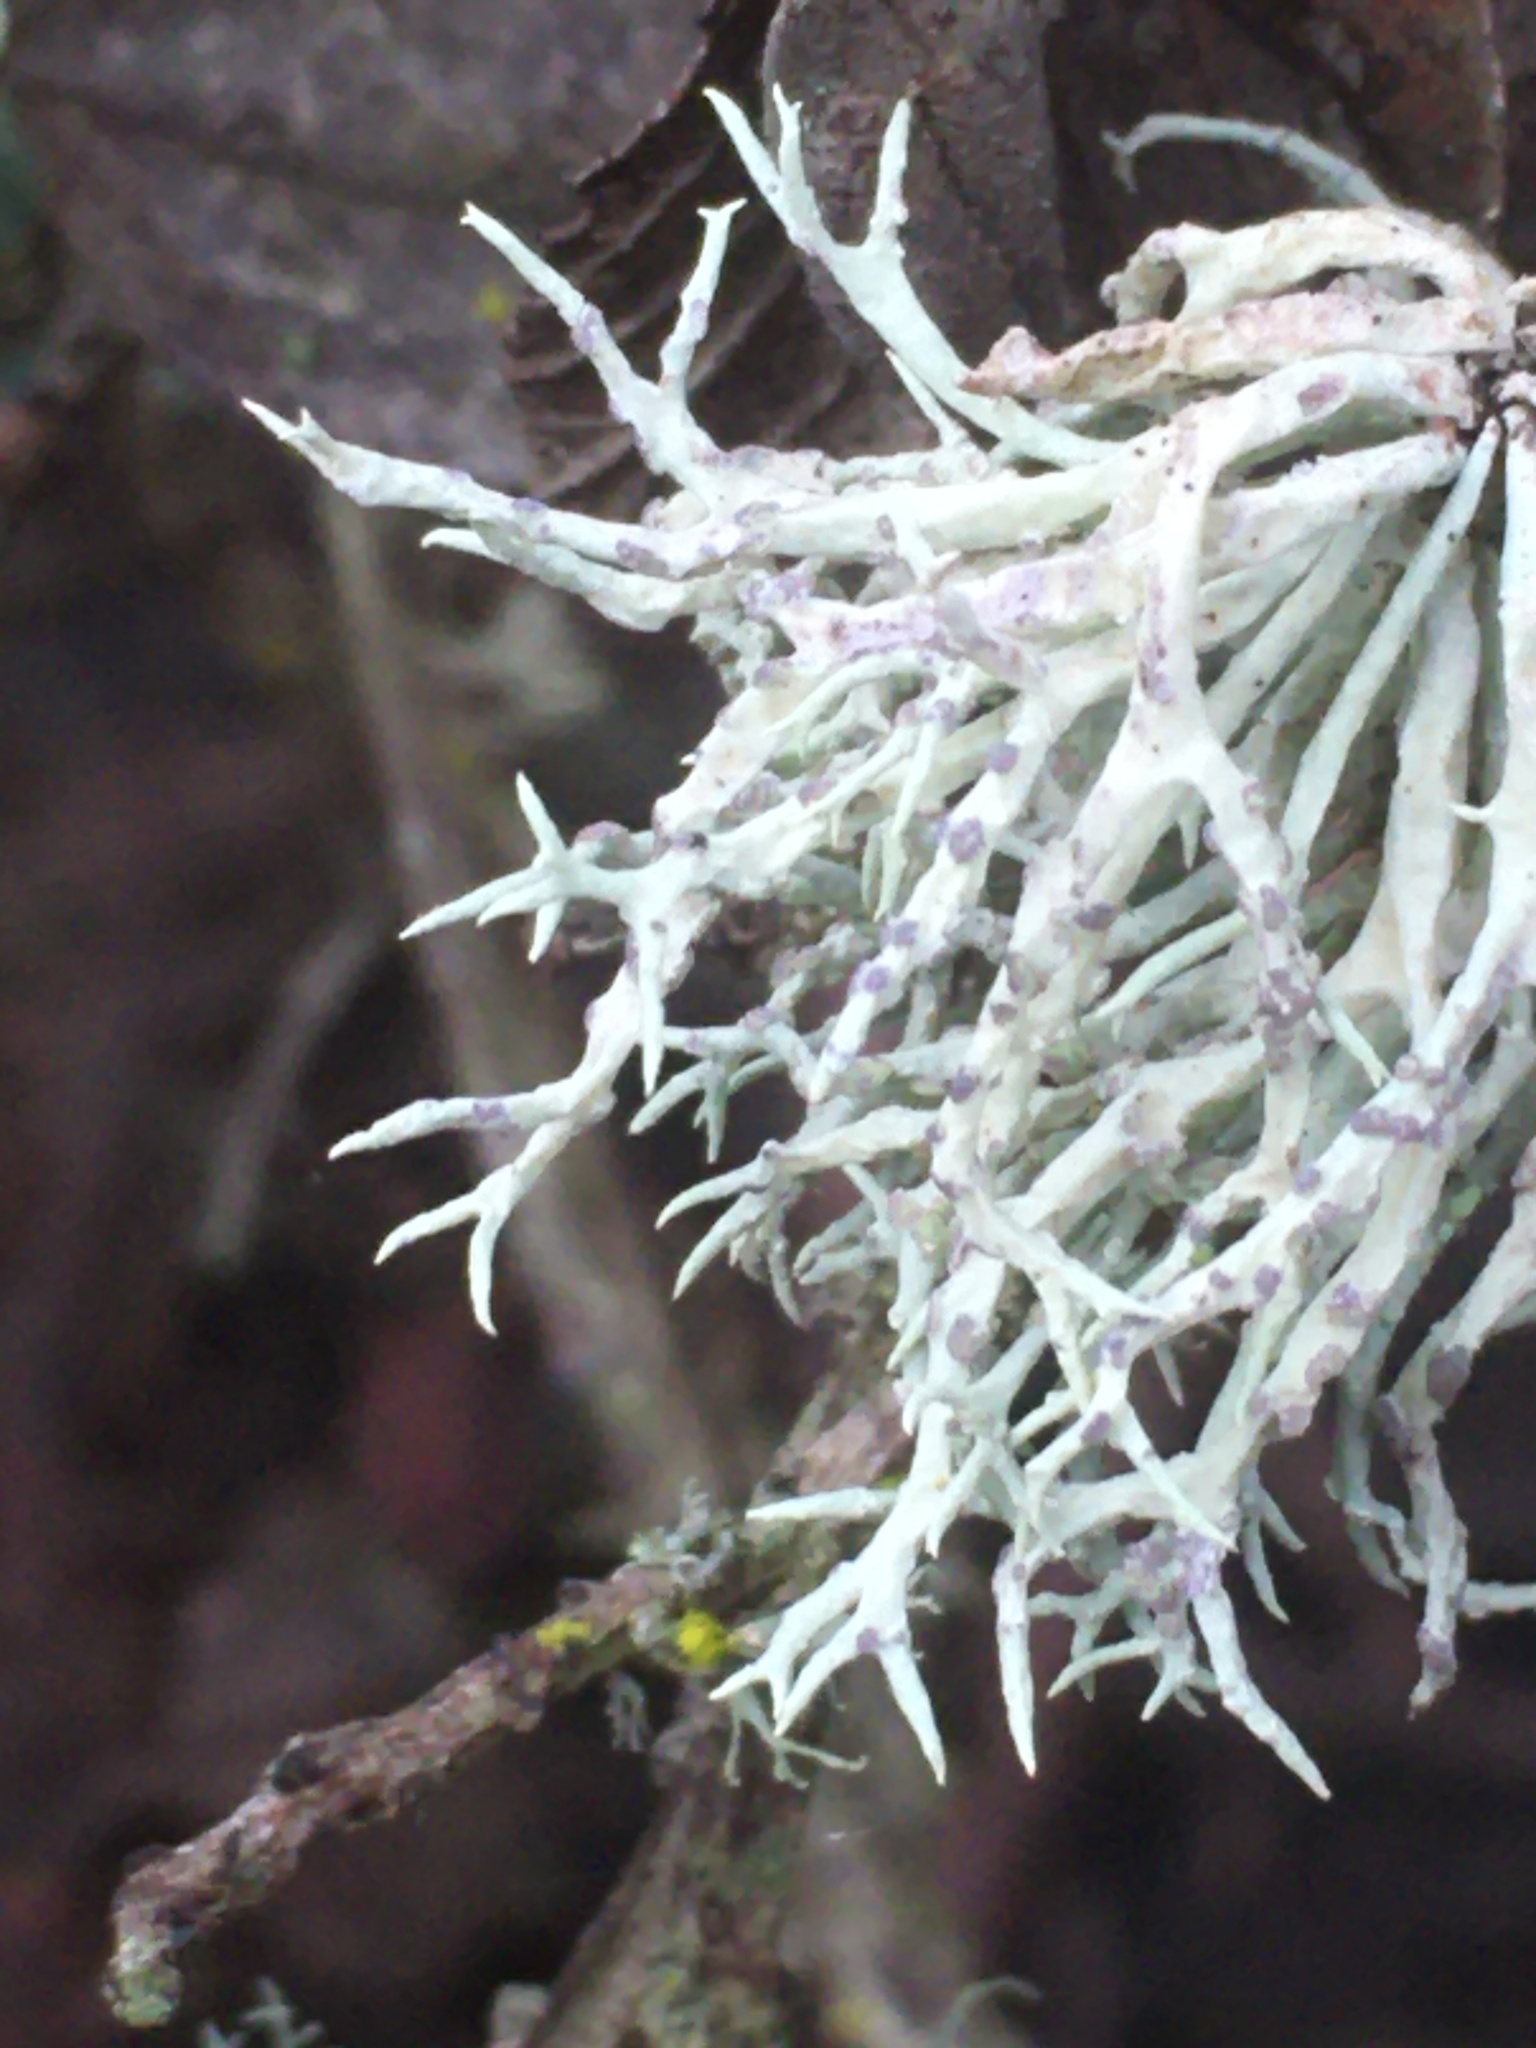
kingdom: Fungi
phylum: Ascomycota
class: Lecanoromycetes
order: Lecanorales
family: Ramalinaceae
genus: Niebla
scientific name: Niebla cephalota
